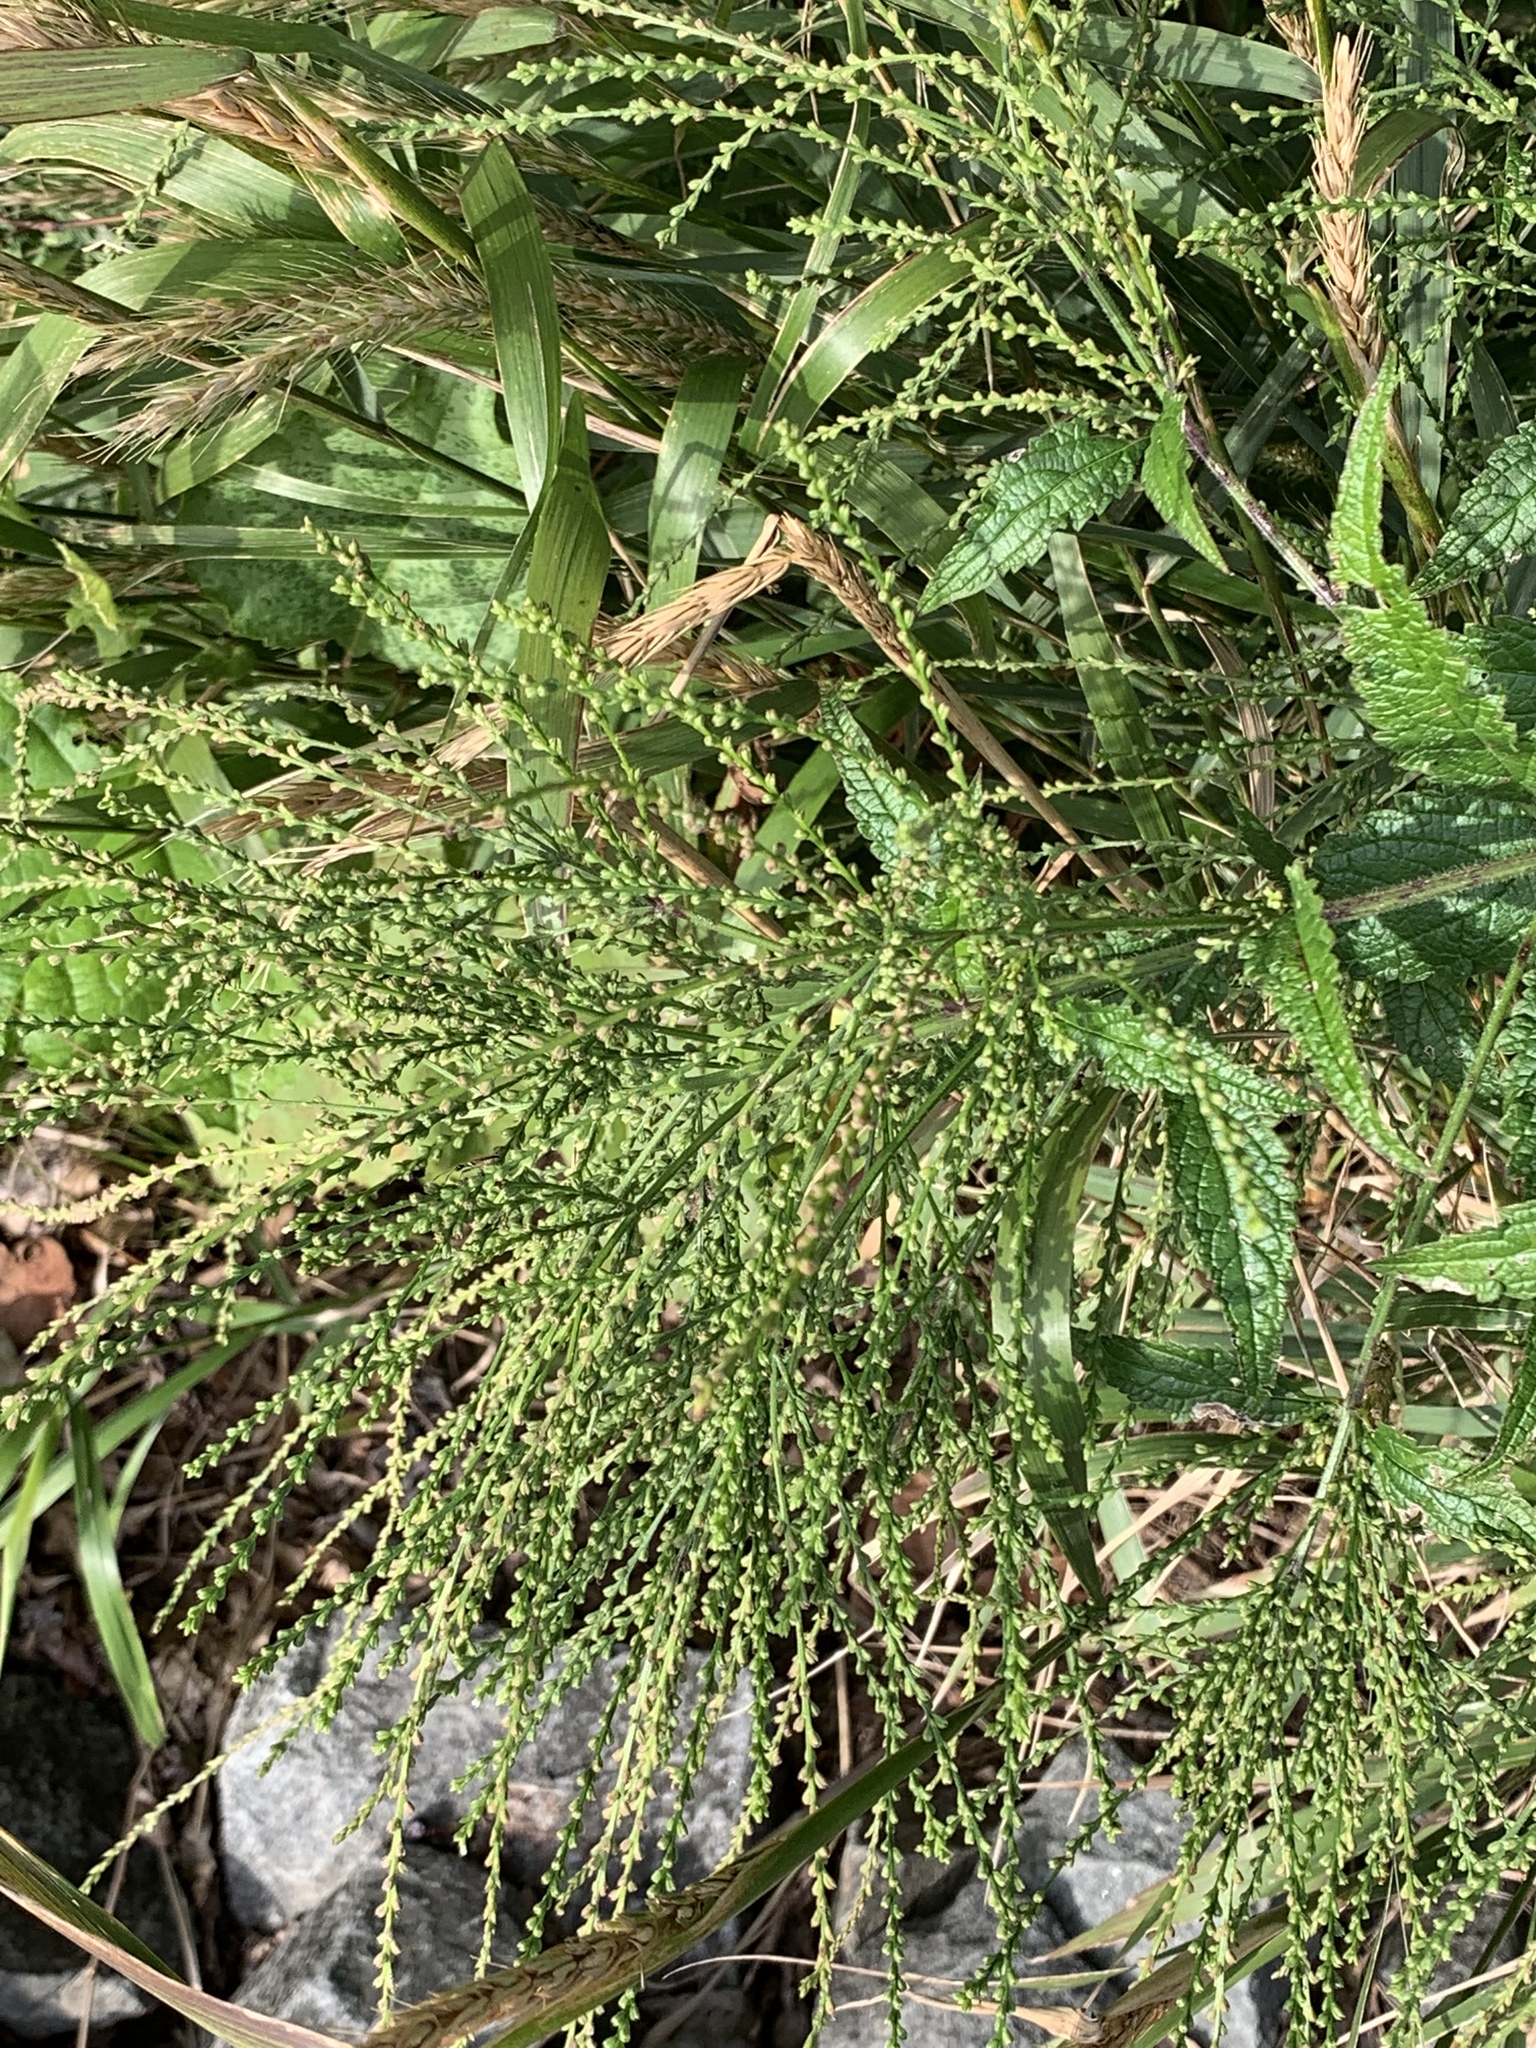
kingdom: Plantae
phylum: Tracheophyta
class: Magnoliopsida
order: Lamiales
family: Verbenaceae
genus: Verbena
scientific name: Verbena urticifolia
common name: Nettle-leaved vervain
